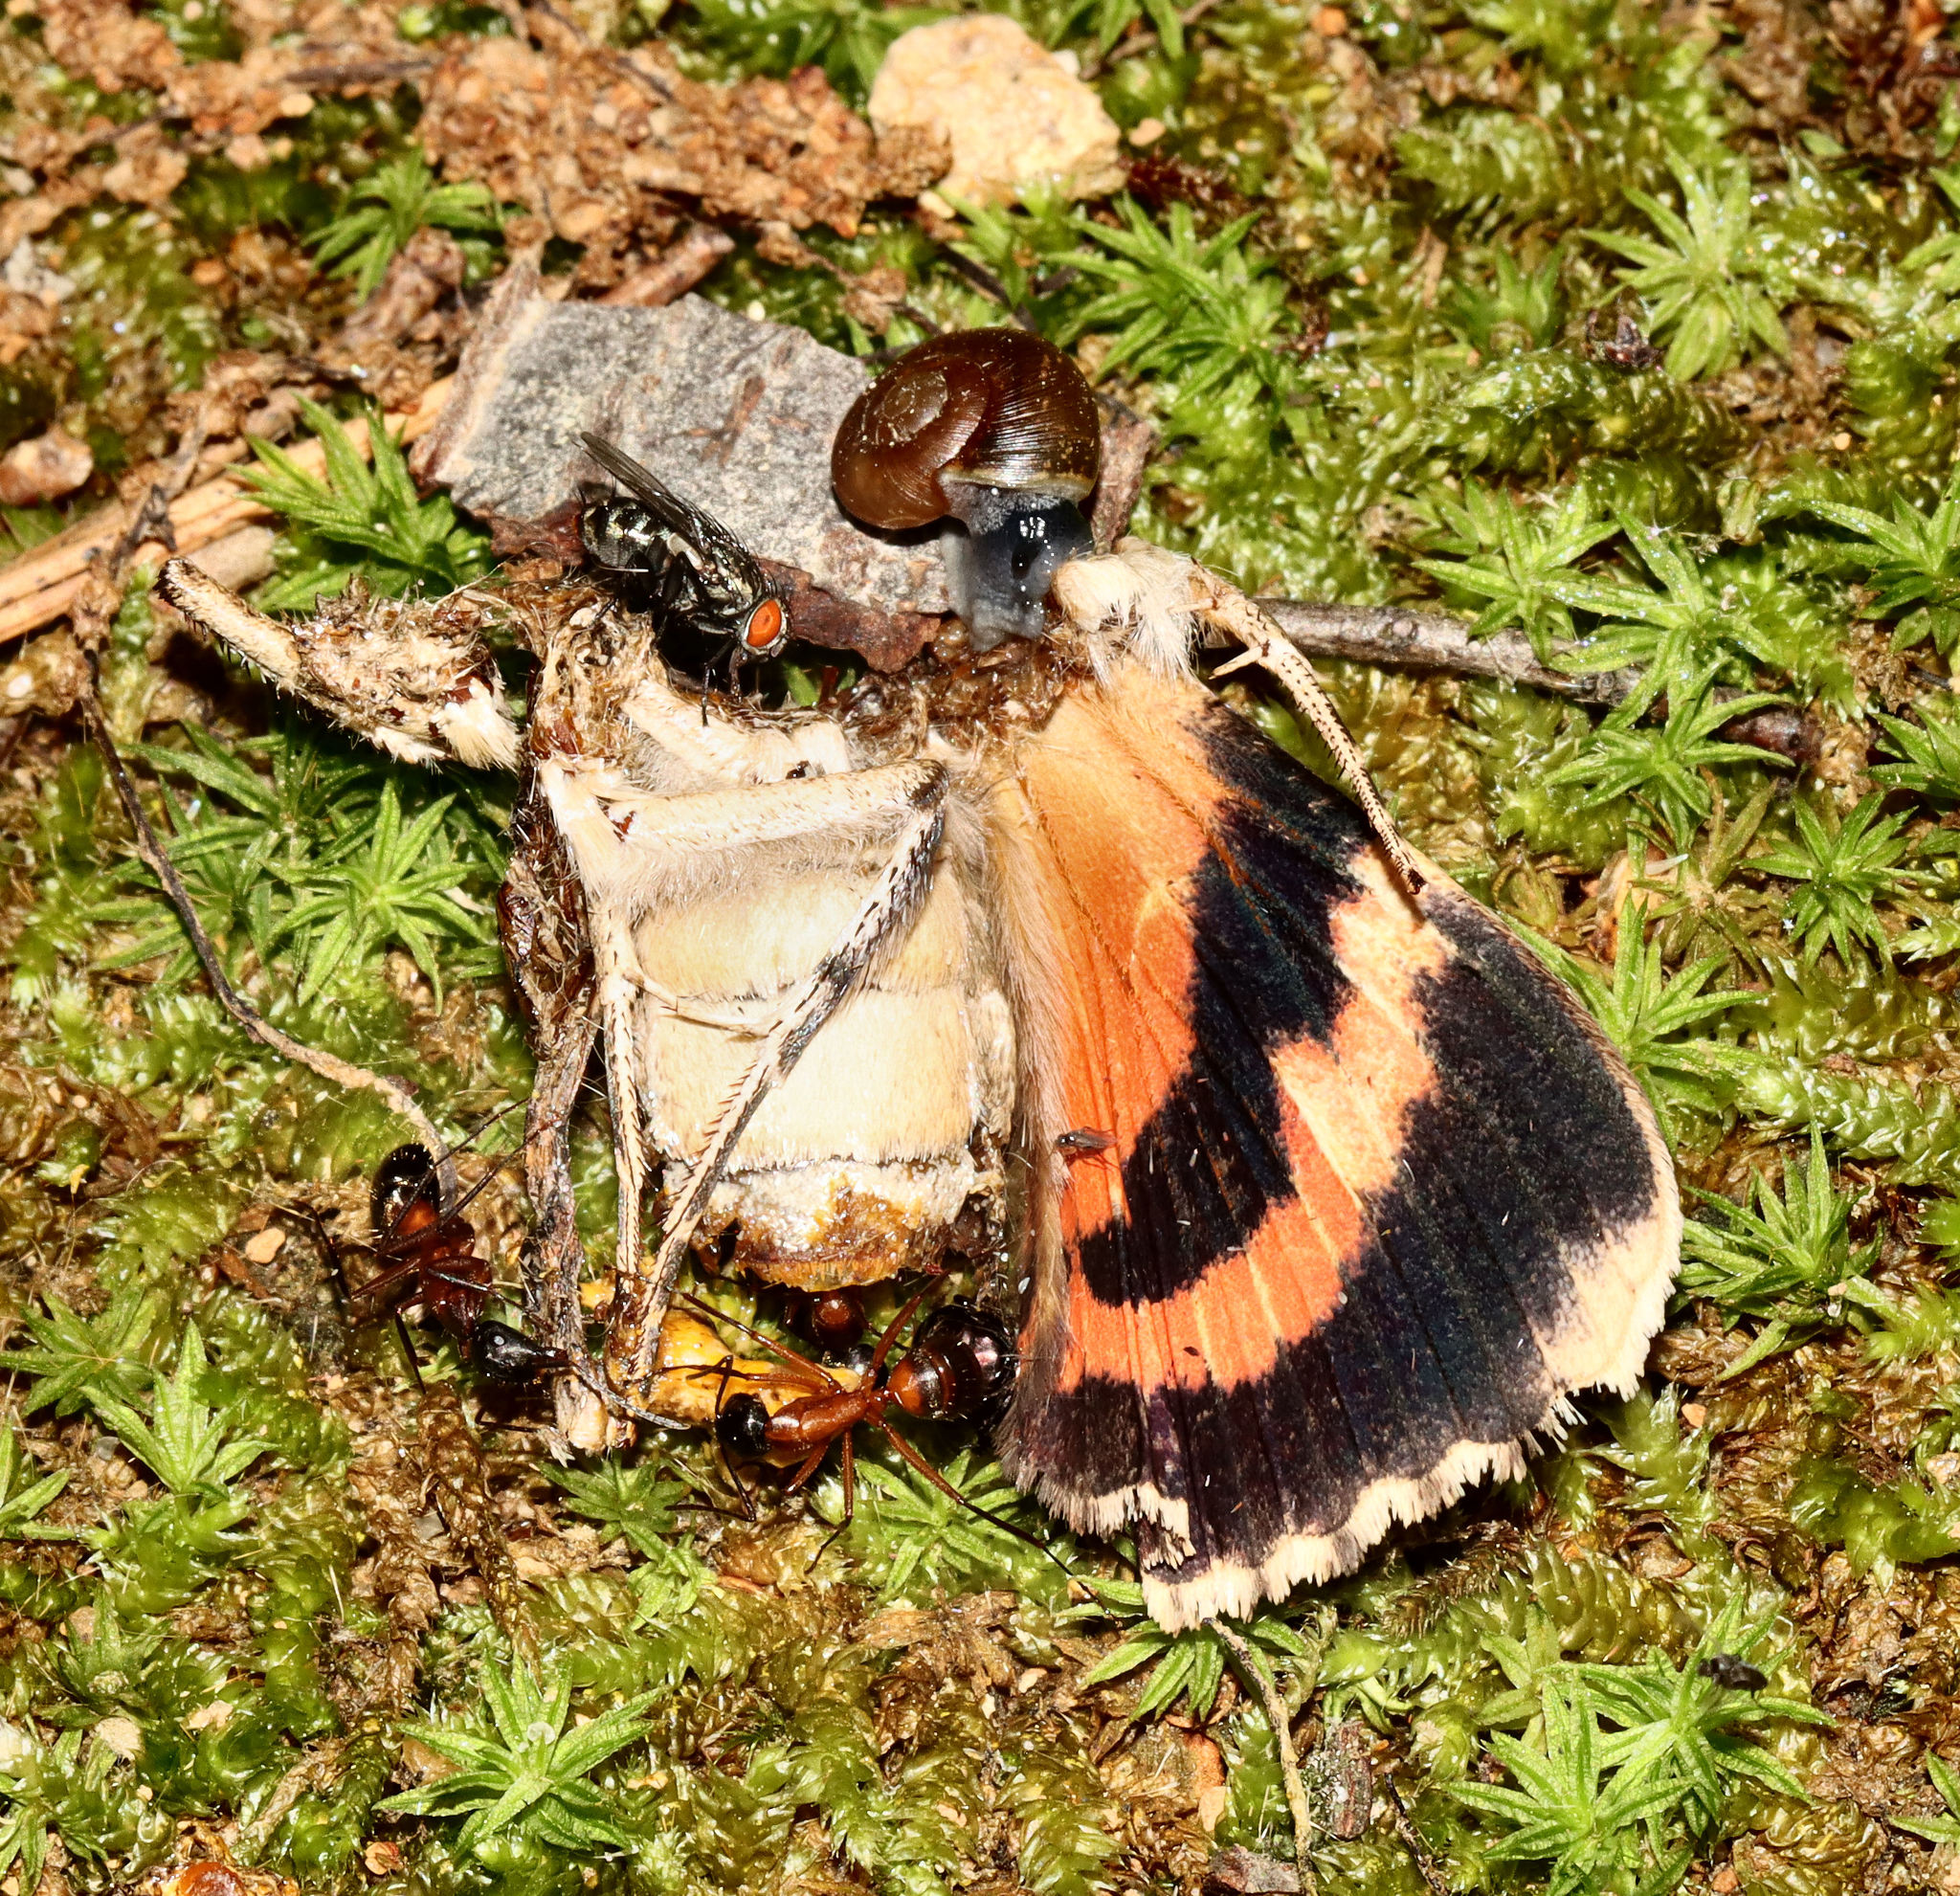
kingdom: Animalia
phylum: Arthropoda
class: Insecta
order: Lepidoptera
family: Erebidae
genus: Catocala
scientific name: Catocala ilia
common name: Ilia underwing
